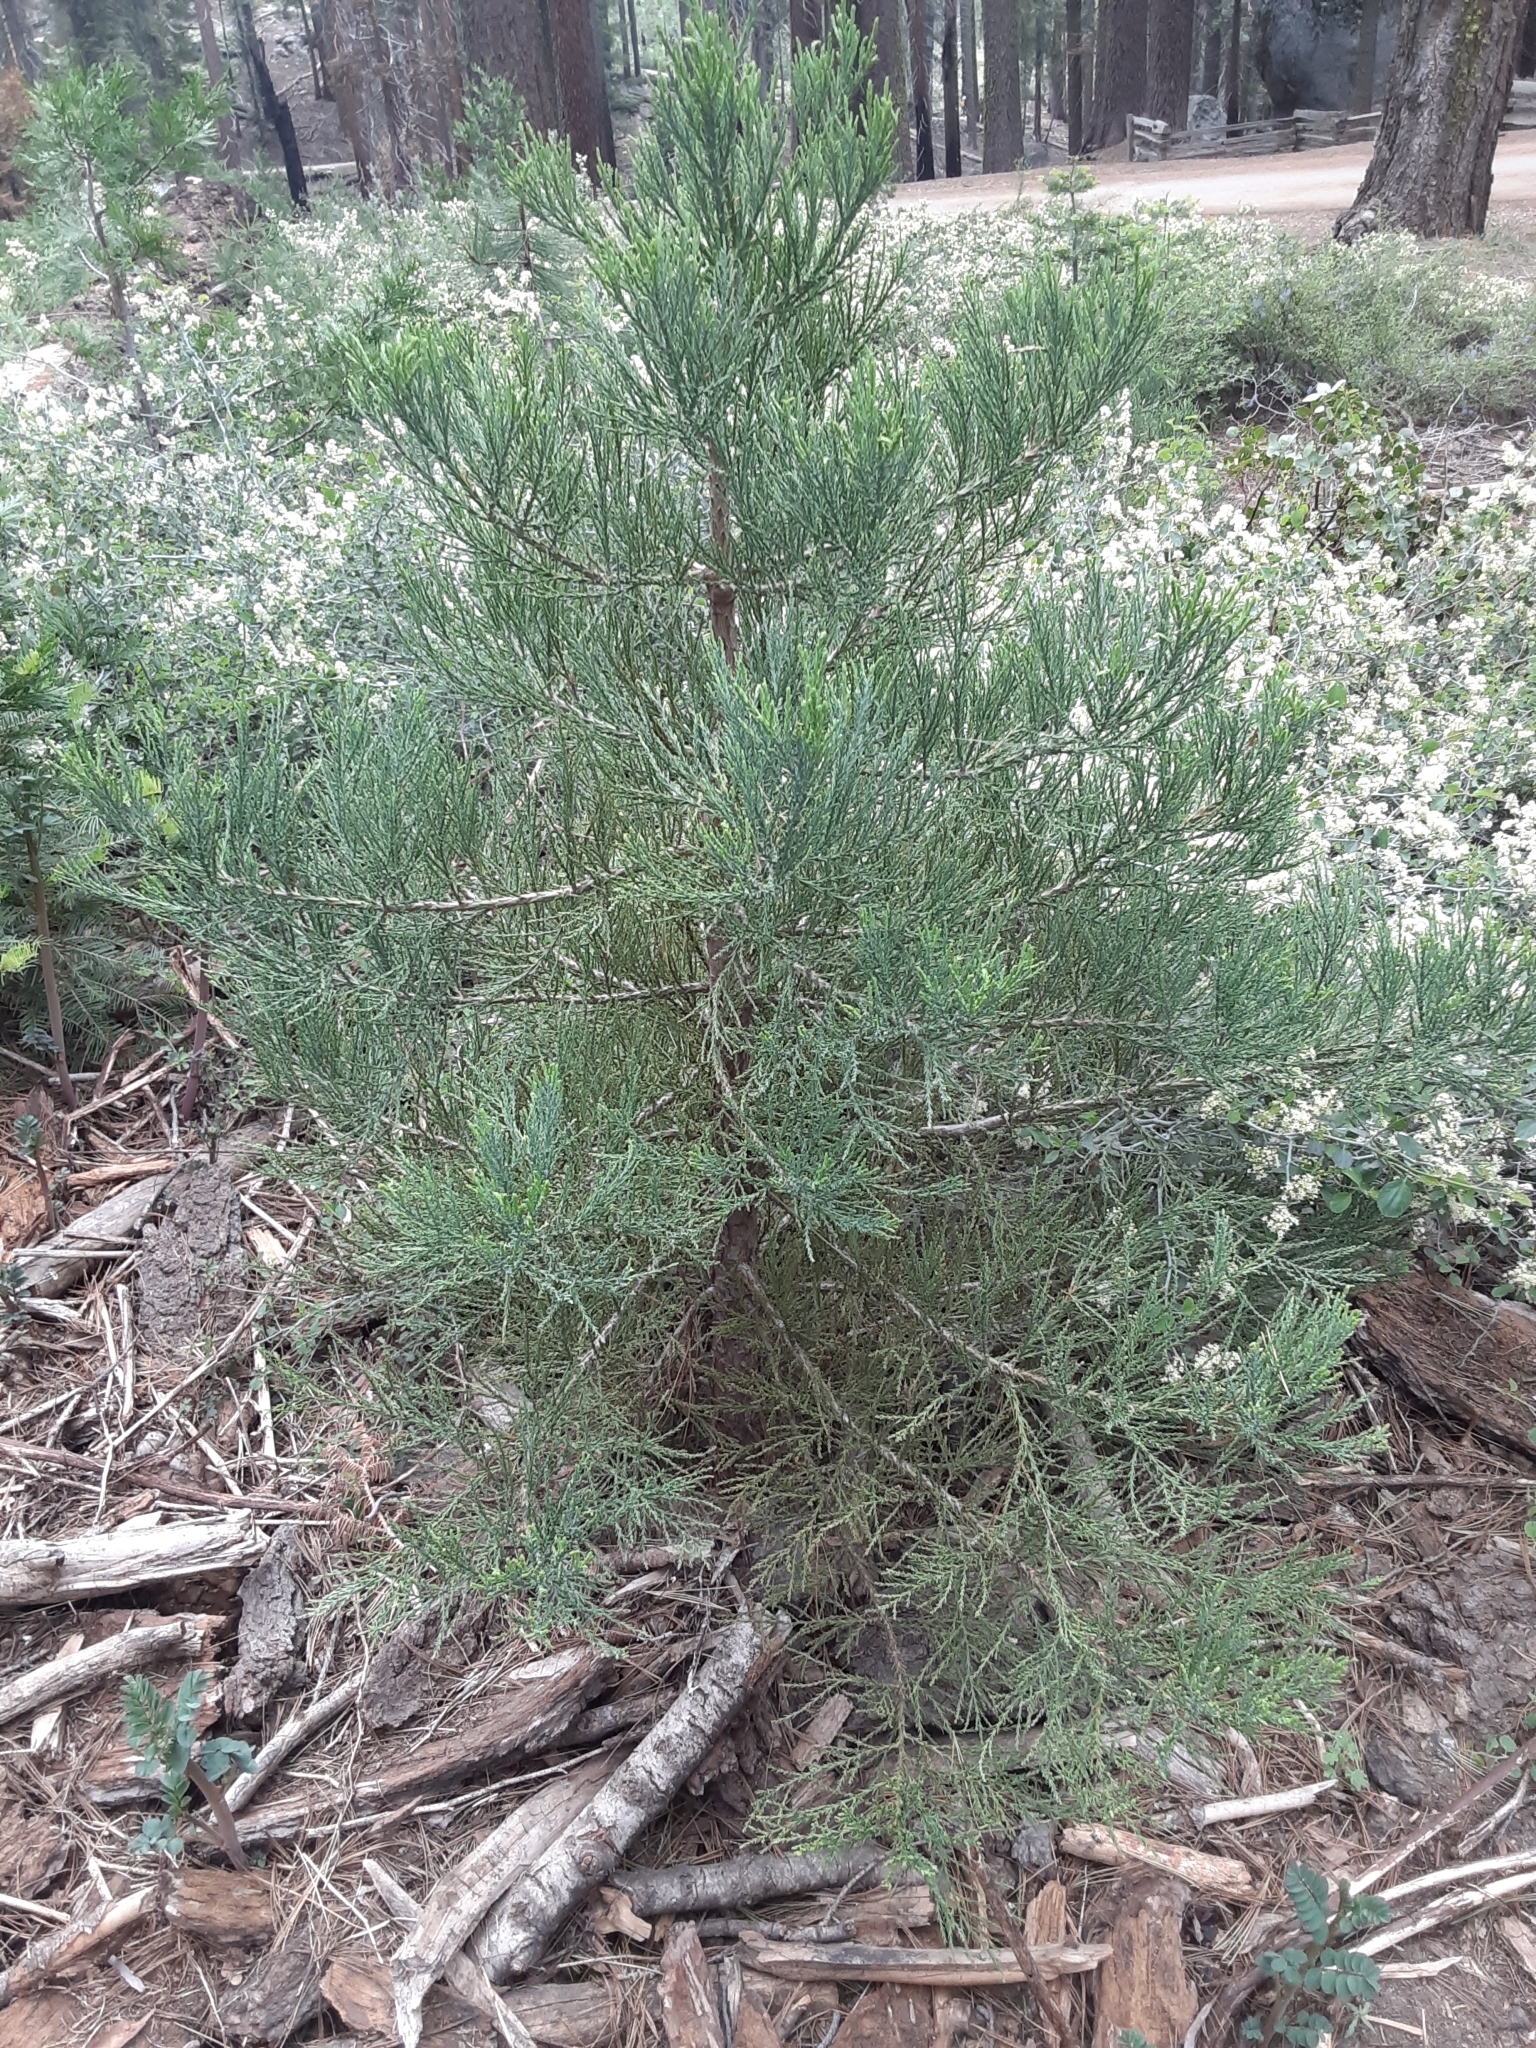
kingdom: Plantae
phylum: Tracheophyta
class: Pinopsida
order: Pinales
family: Cupressaceae
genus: Sequoiadendron
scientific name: Sequoiadendron giganteum
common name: Wellingtonia
